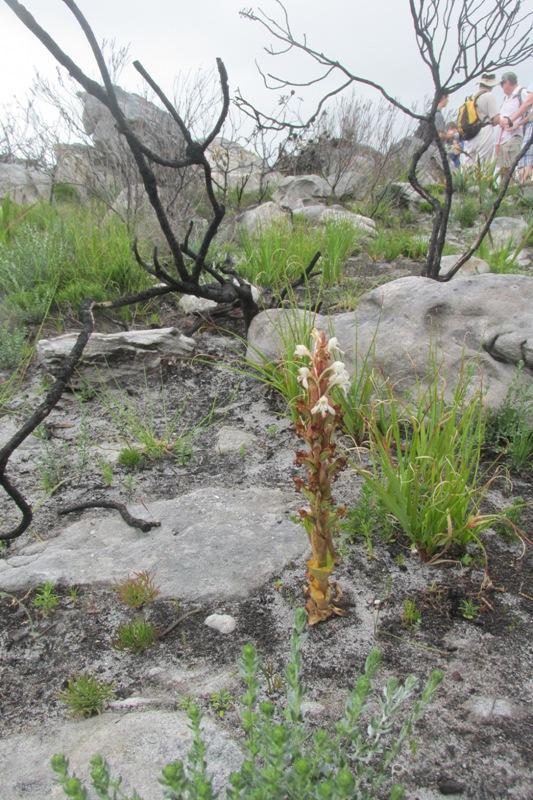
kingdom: Plantae
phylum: Tracheophyta
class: Liliopsida
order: Asparagales
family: Orchidaceae
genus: Satyrium
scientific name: Satyrium candidum
